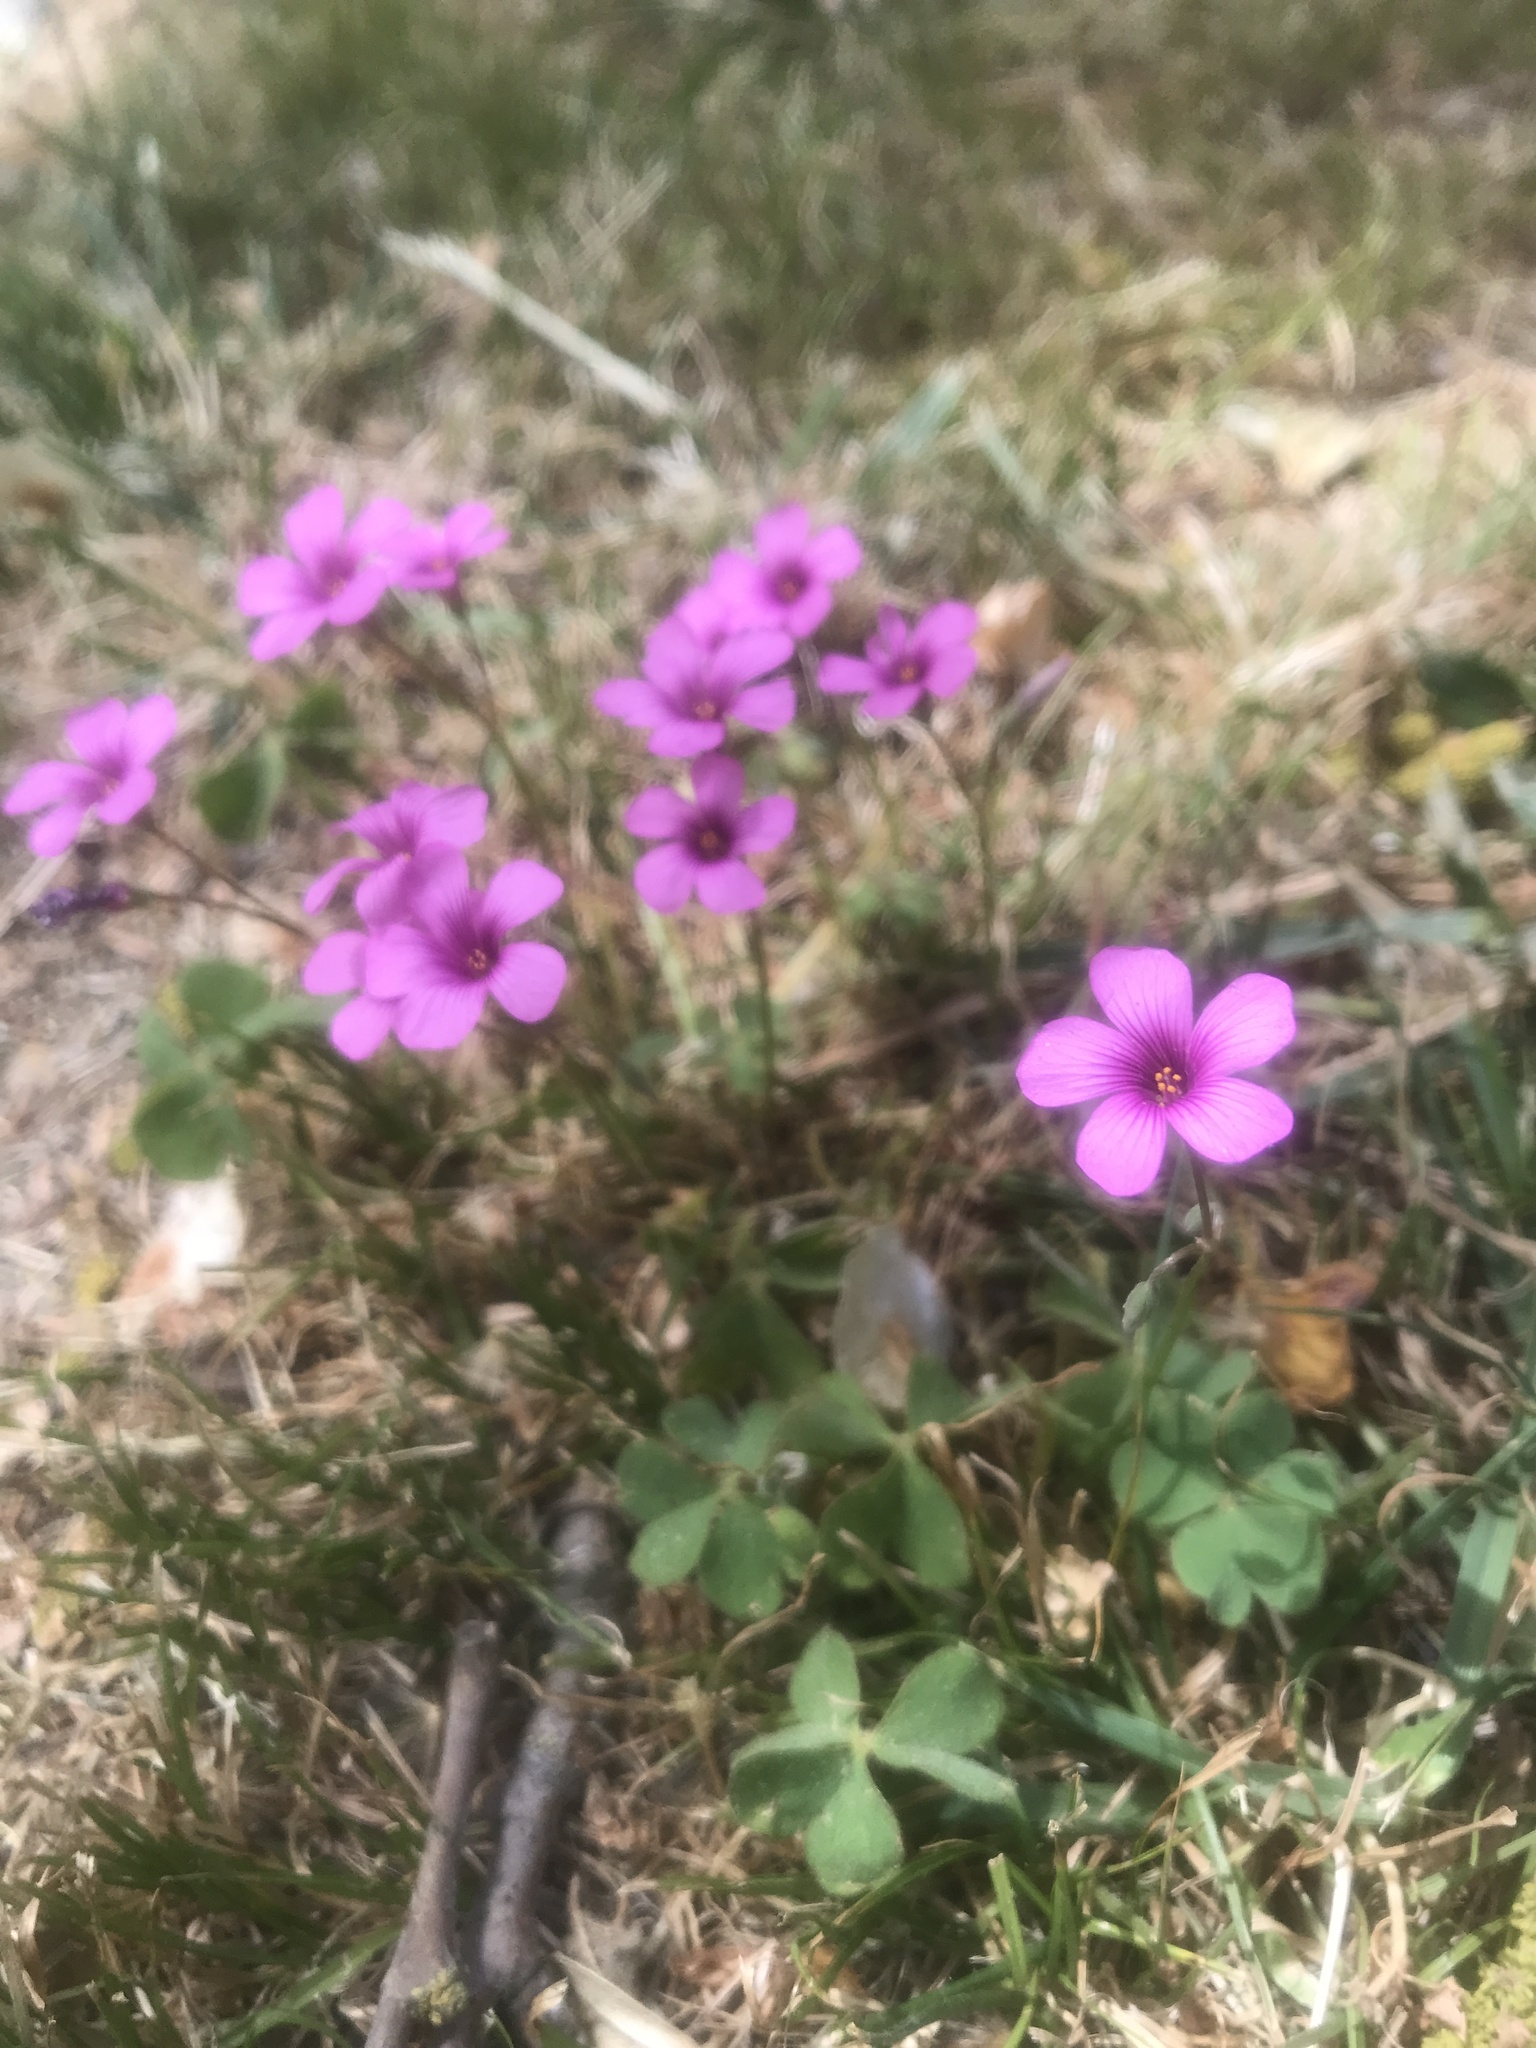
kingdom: Plantae
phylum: Tracheophyta
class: Magnoliopsida
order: Oxalidales
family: Oxalidaceae
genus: Oxalis
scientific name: Oxalis articulata
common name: Pink-sorrel
